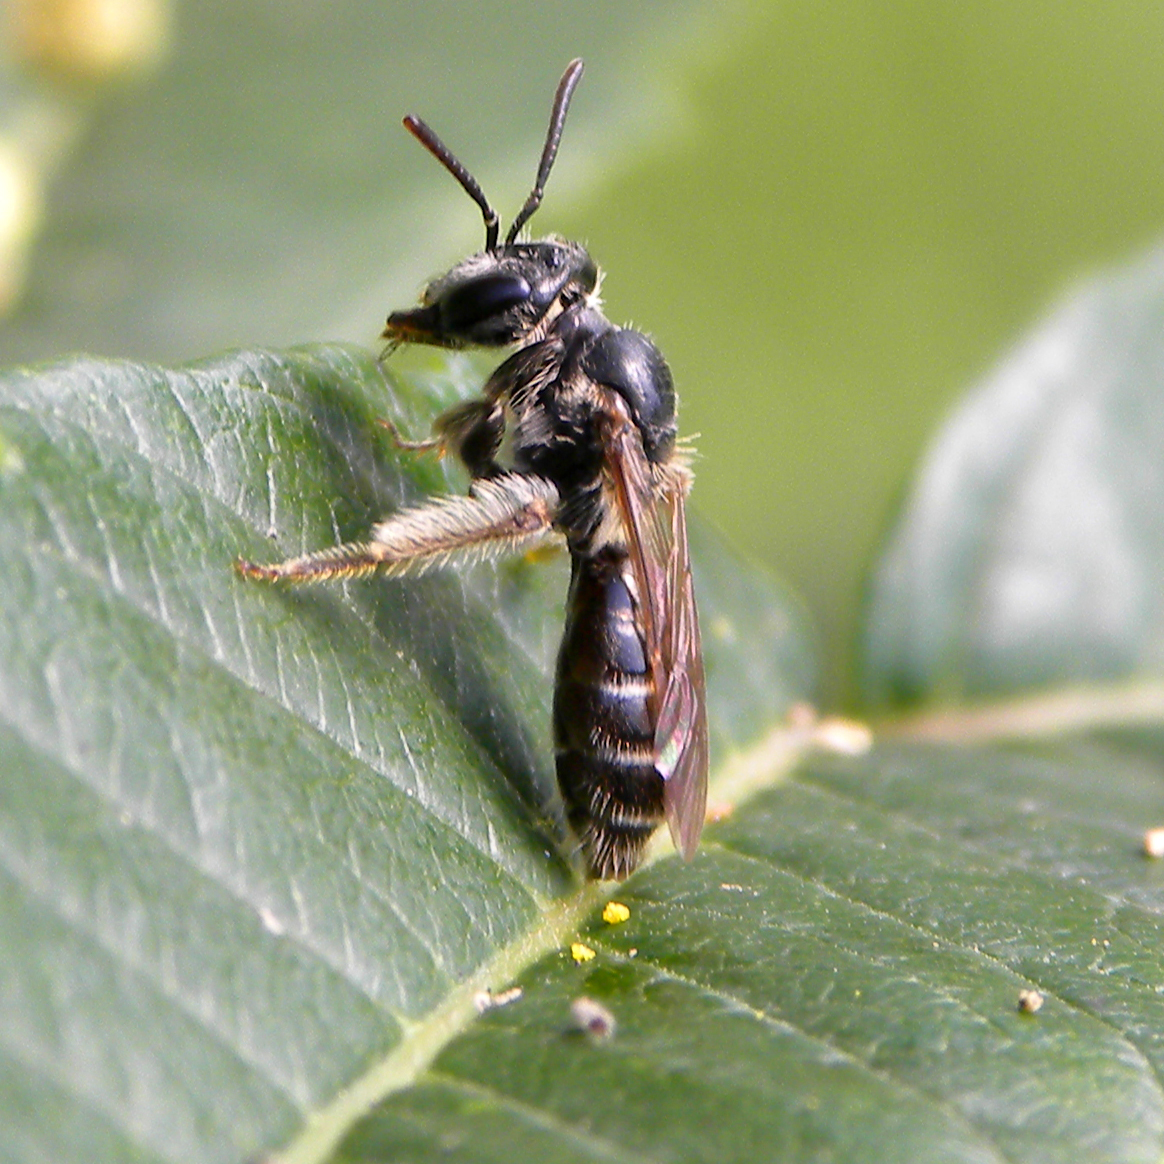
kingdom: Animalia
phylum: Arthropoda
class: Insecta
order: Hymenoptera
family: Andrenidae
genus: Andrena
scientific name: Andrena
